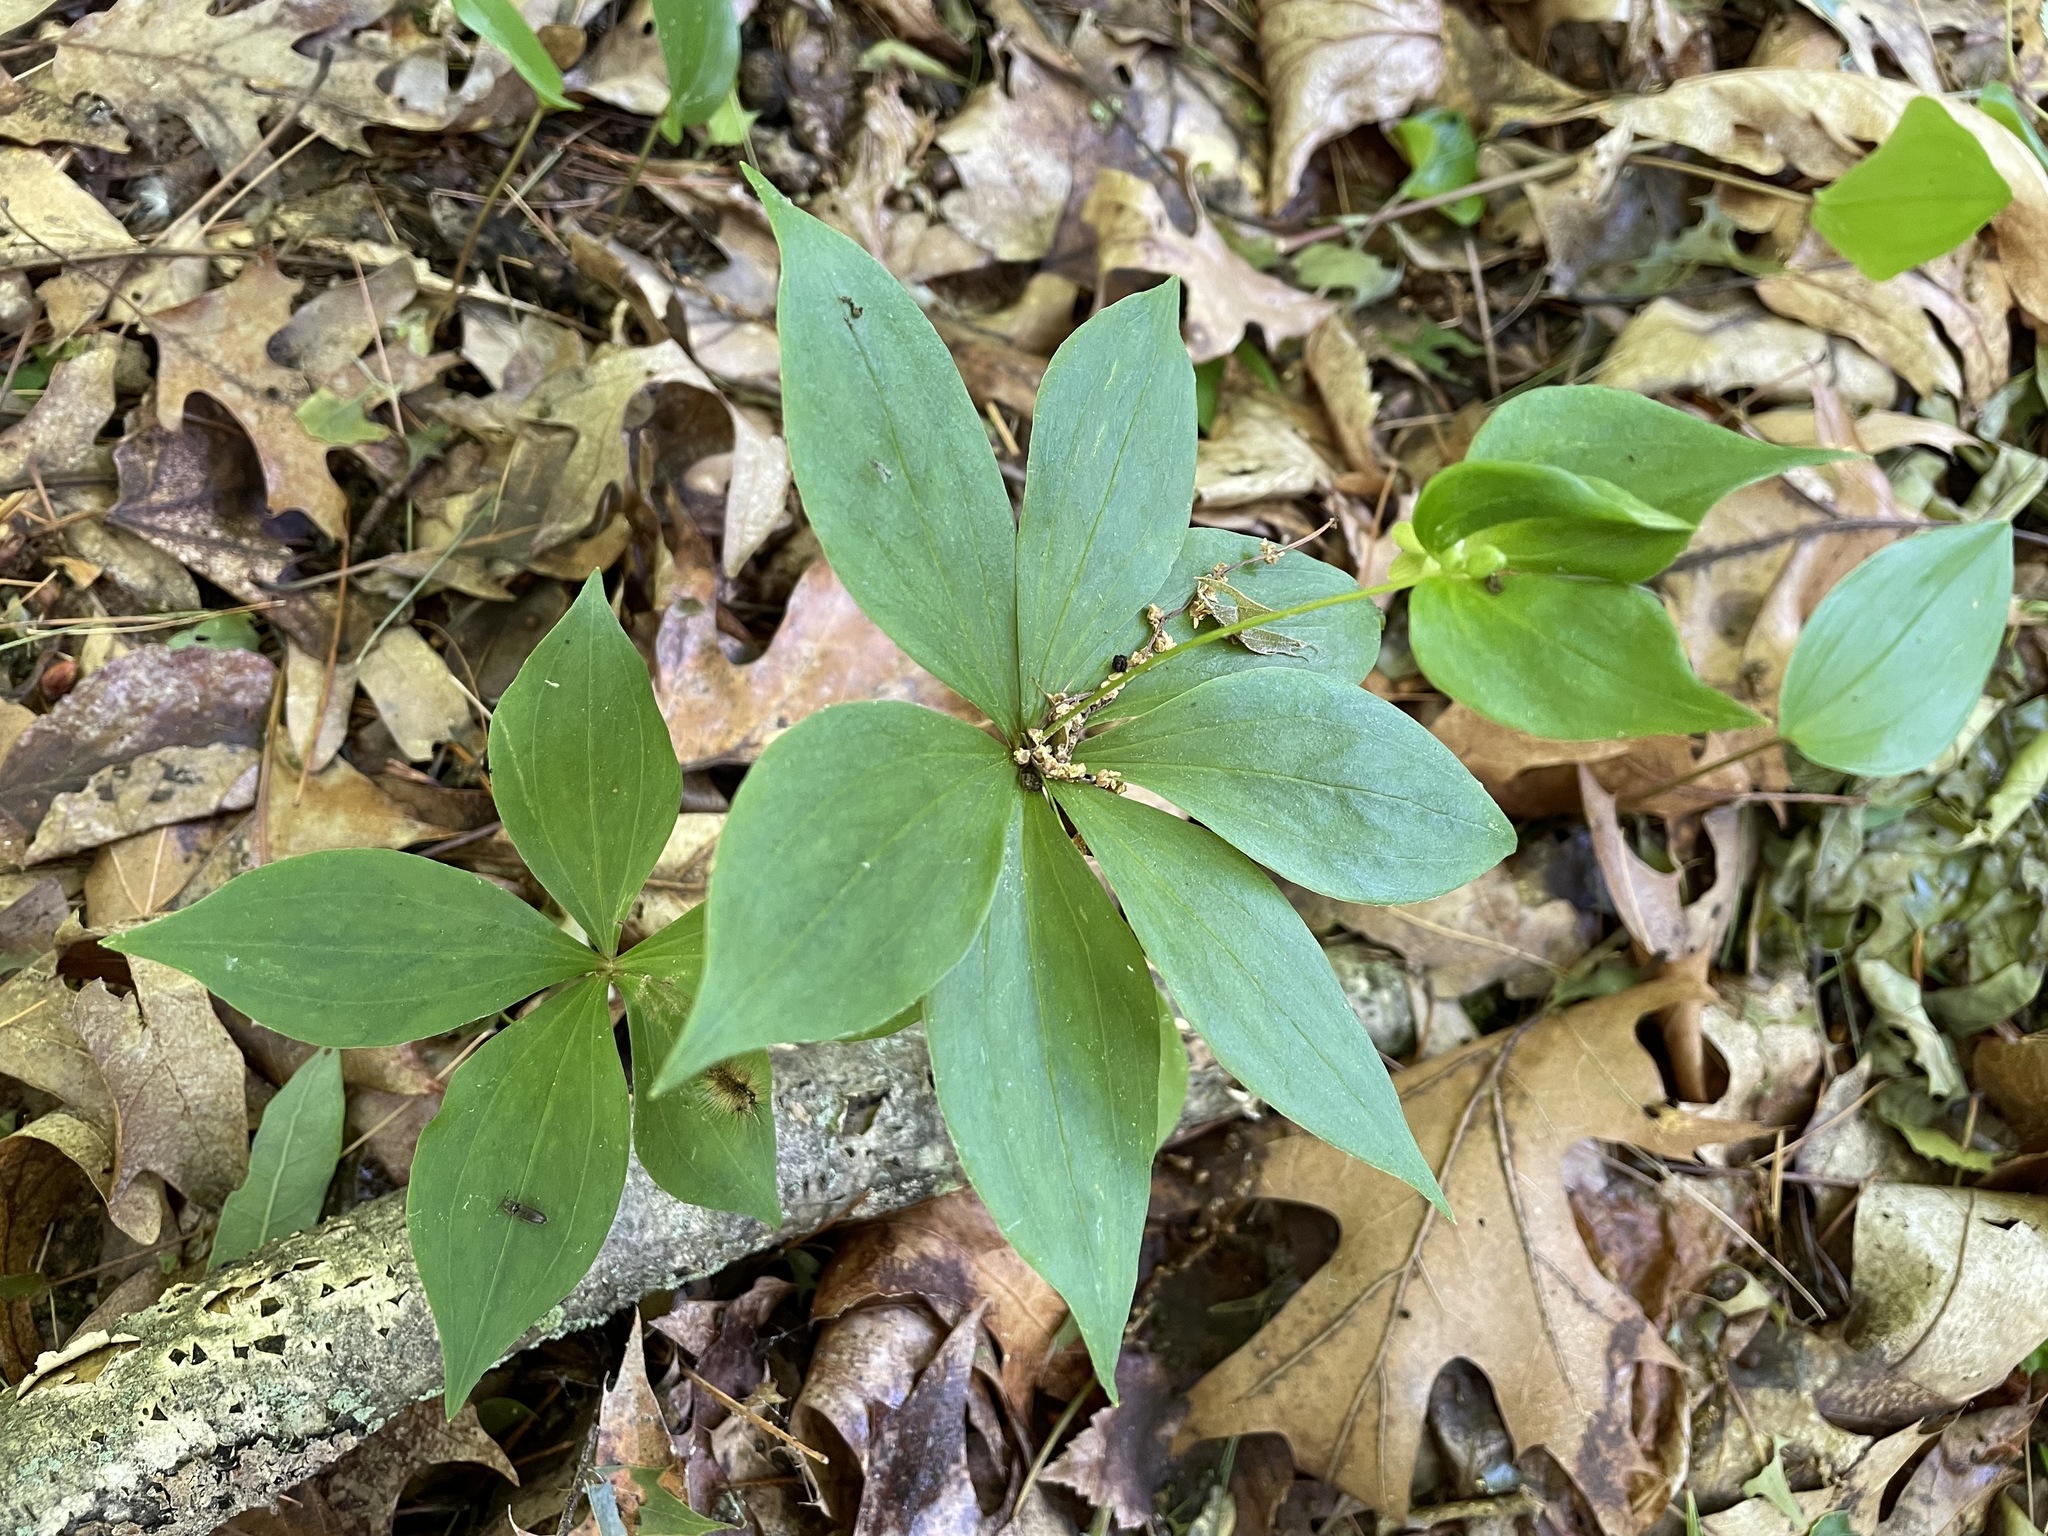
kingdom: Plantae
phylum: Tracheophyta
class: Liliopsida
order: Liliales
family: Liliaceae
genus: Medeola
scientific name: Medeola virginiana
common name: Indian cucumber-root
